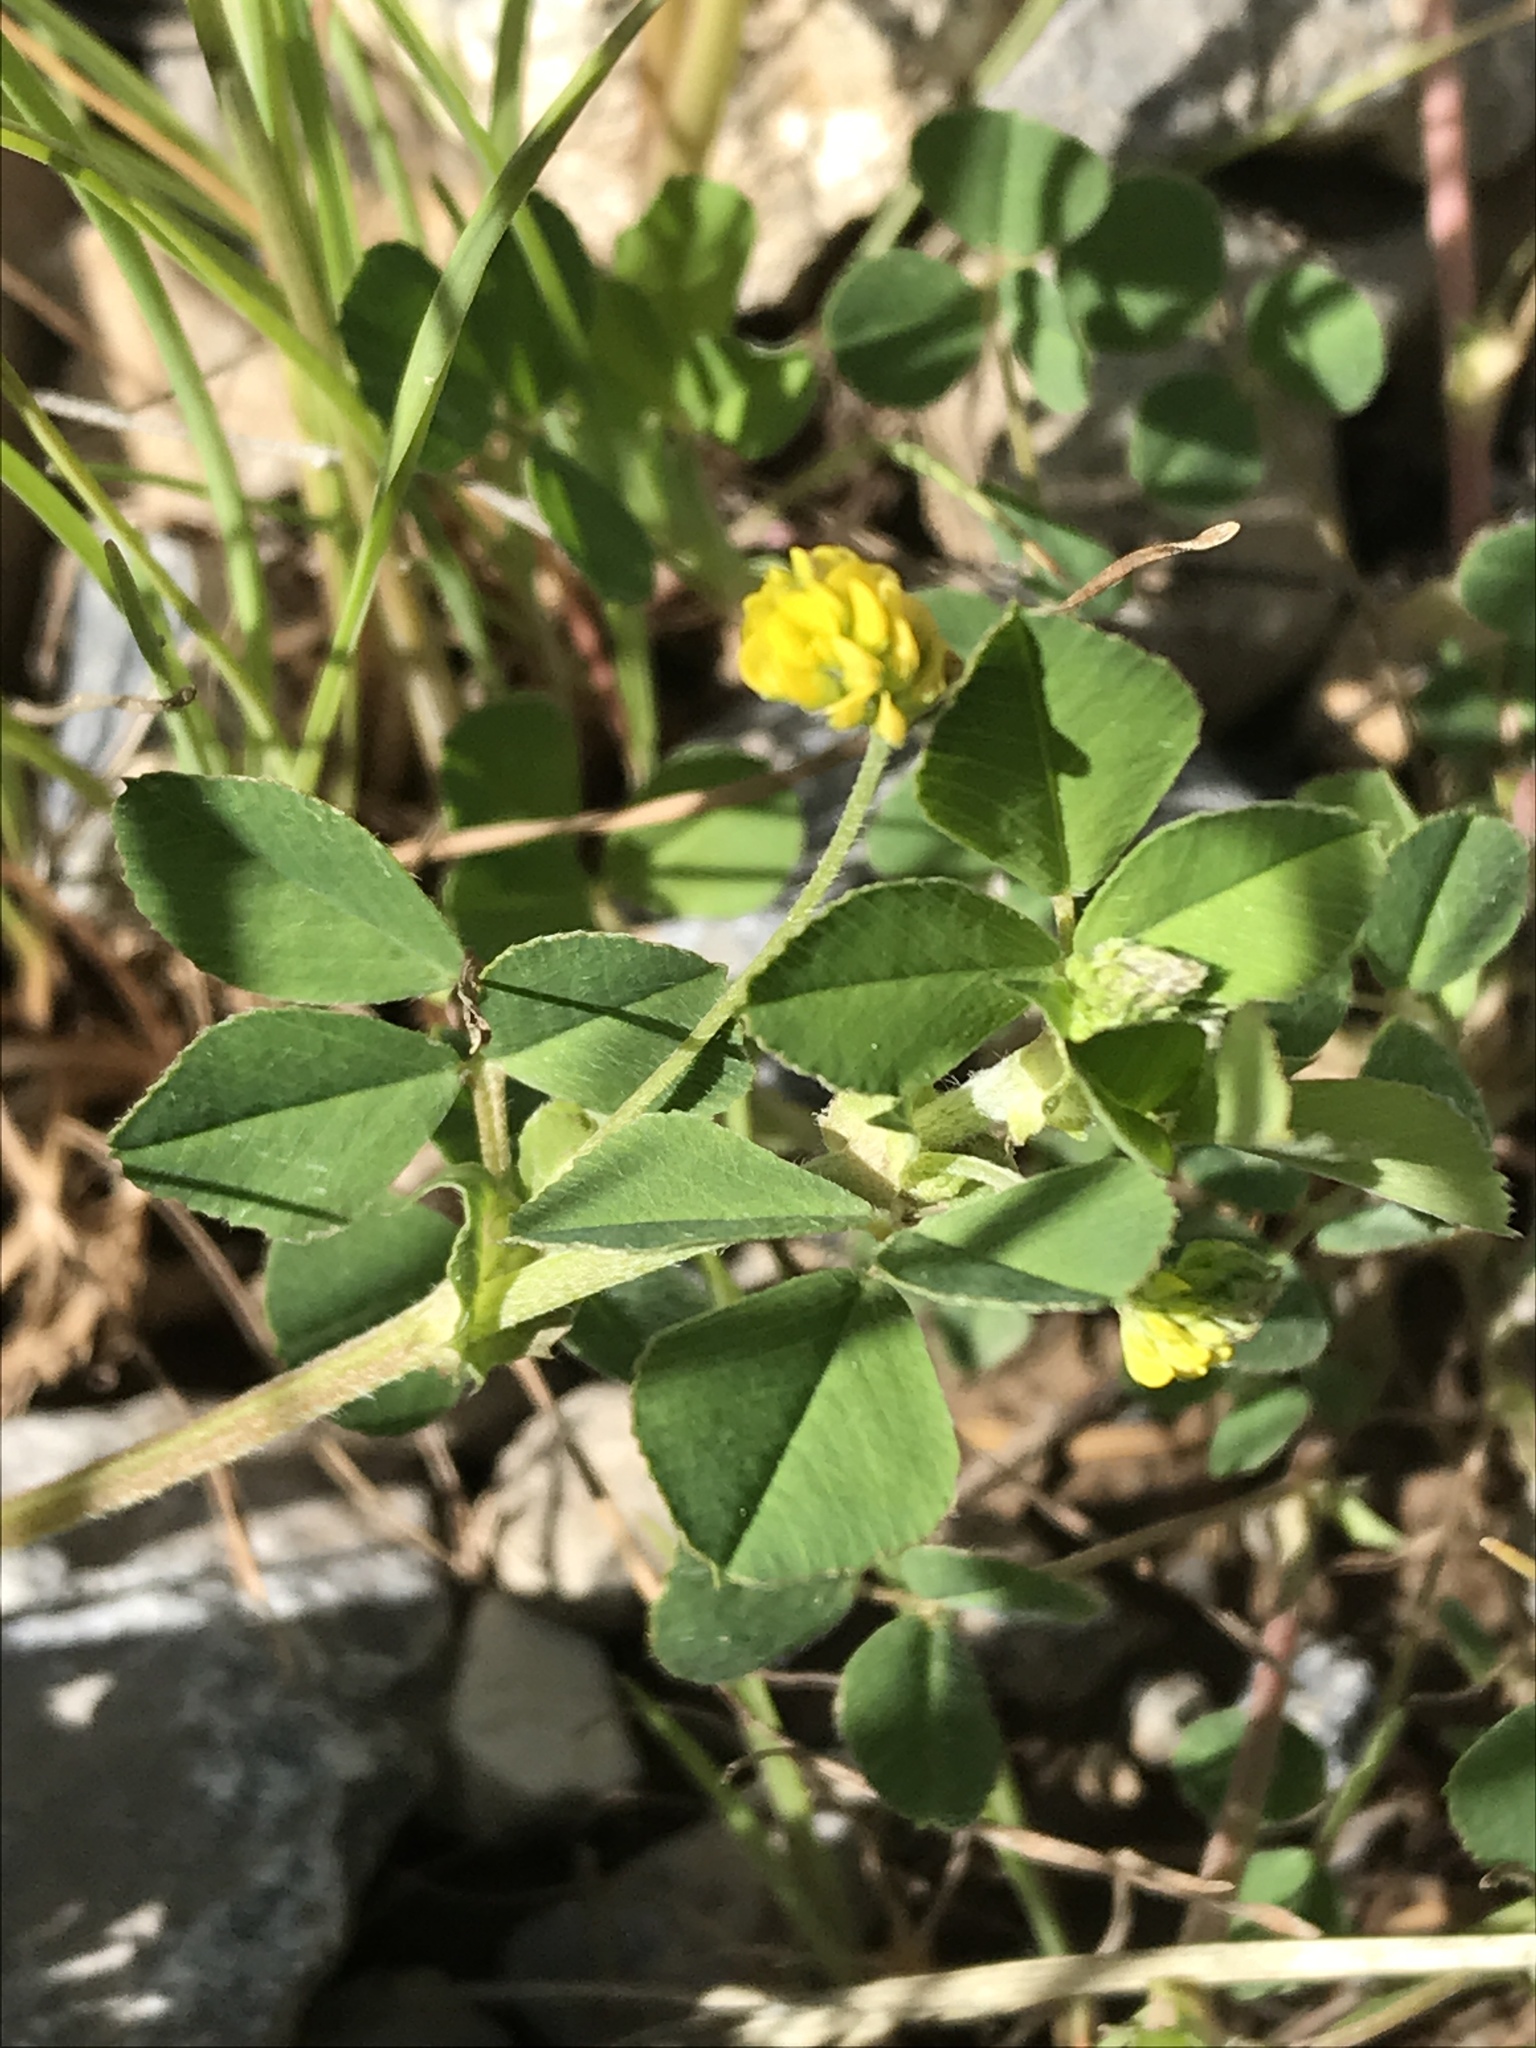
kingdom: Plantae
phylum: Tracheophyta
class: Magnoliopsida
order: Fabales
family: Fabaceae
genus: Medicago
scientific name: Medicago lupulina
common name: Black medick
